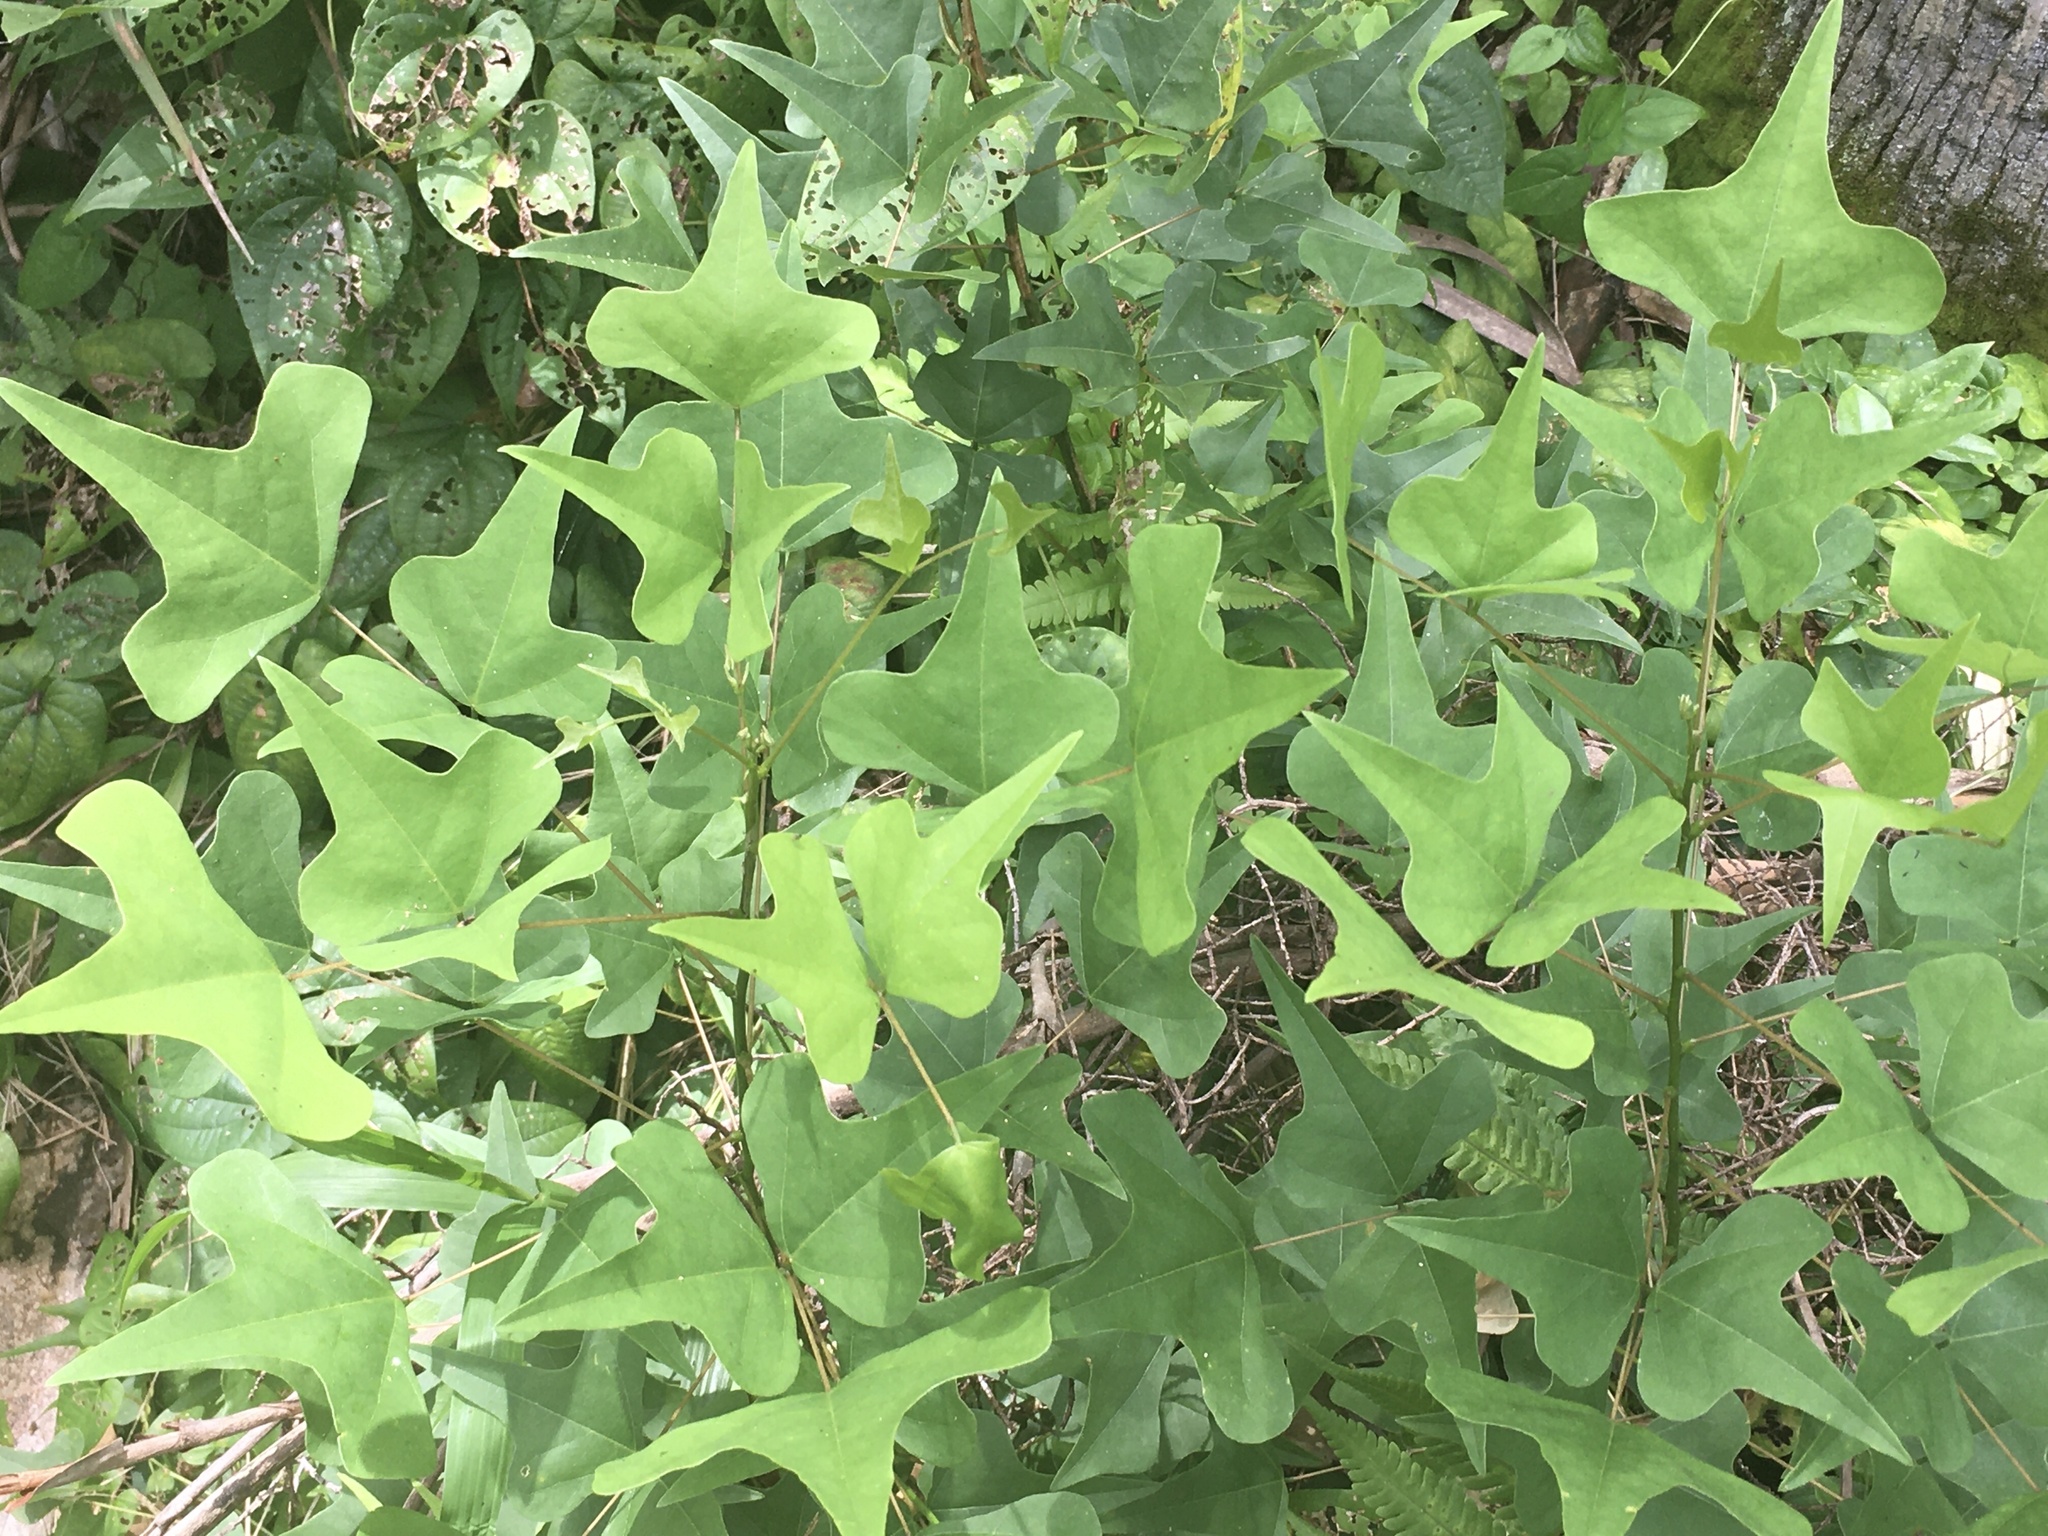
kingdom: Plantae
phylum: Tracheophyta
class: Magnoliopsida
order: Fabales
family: Fabaceae
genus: Erythrina
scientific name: Erythrina herbacea
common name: Coral-bean
